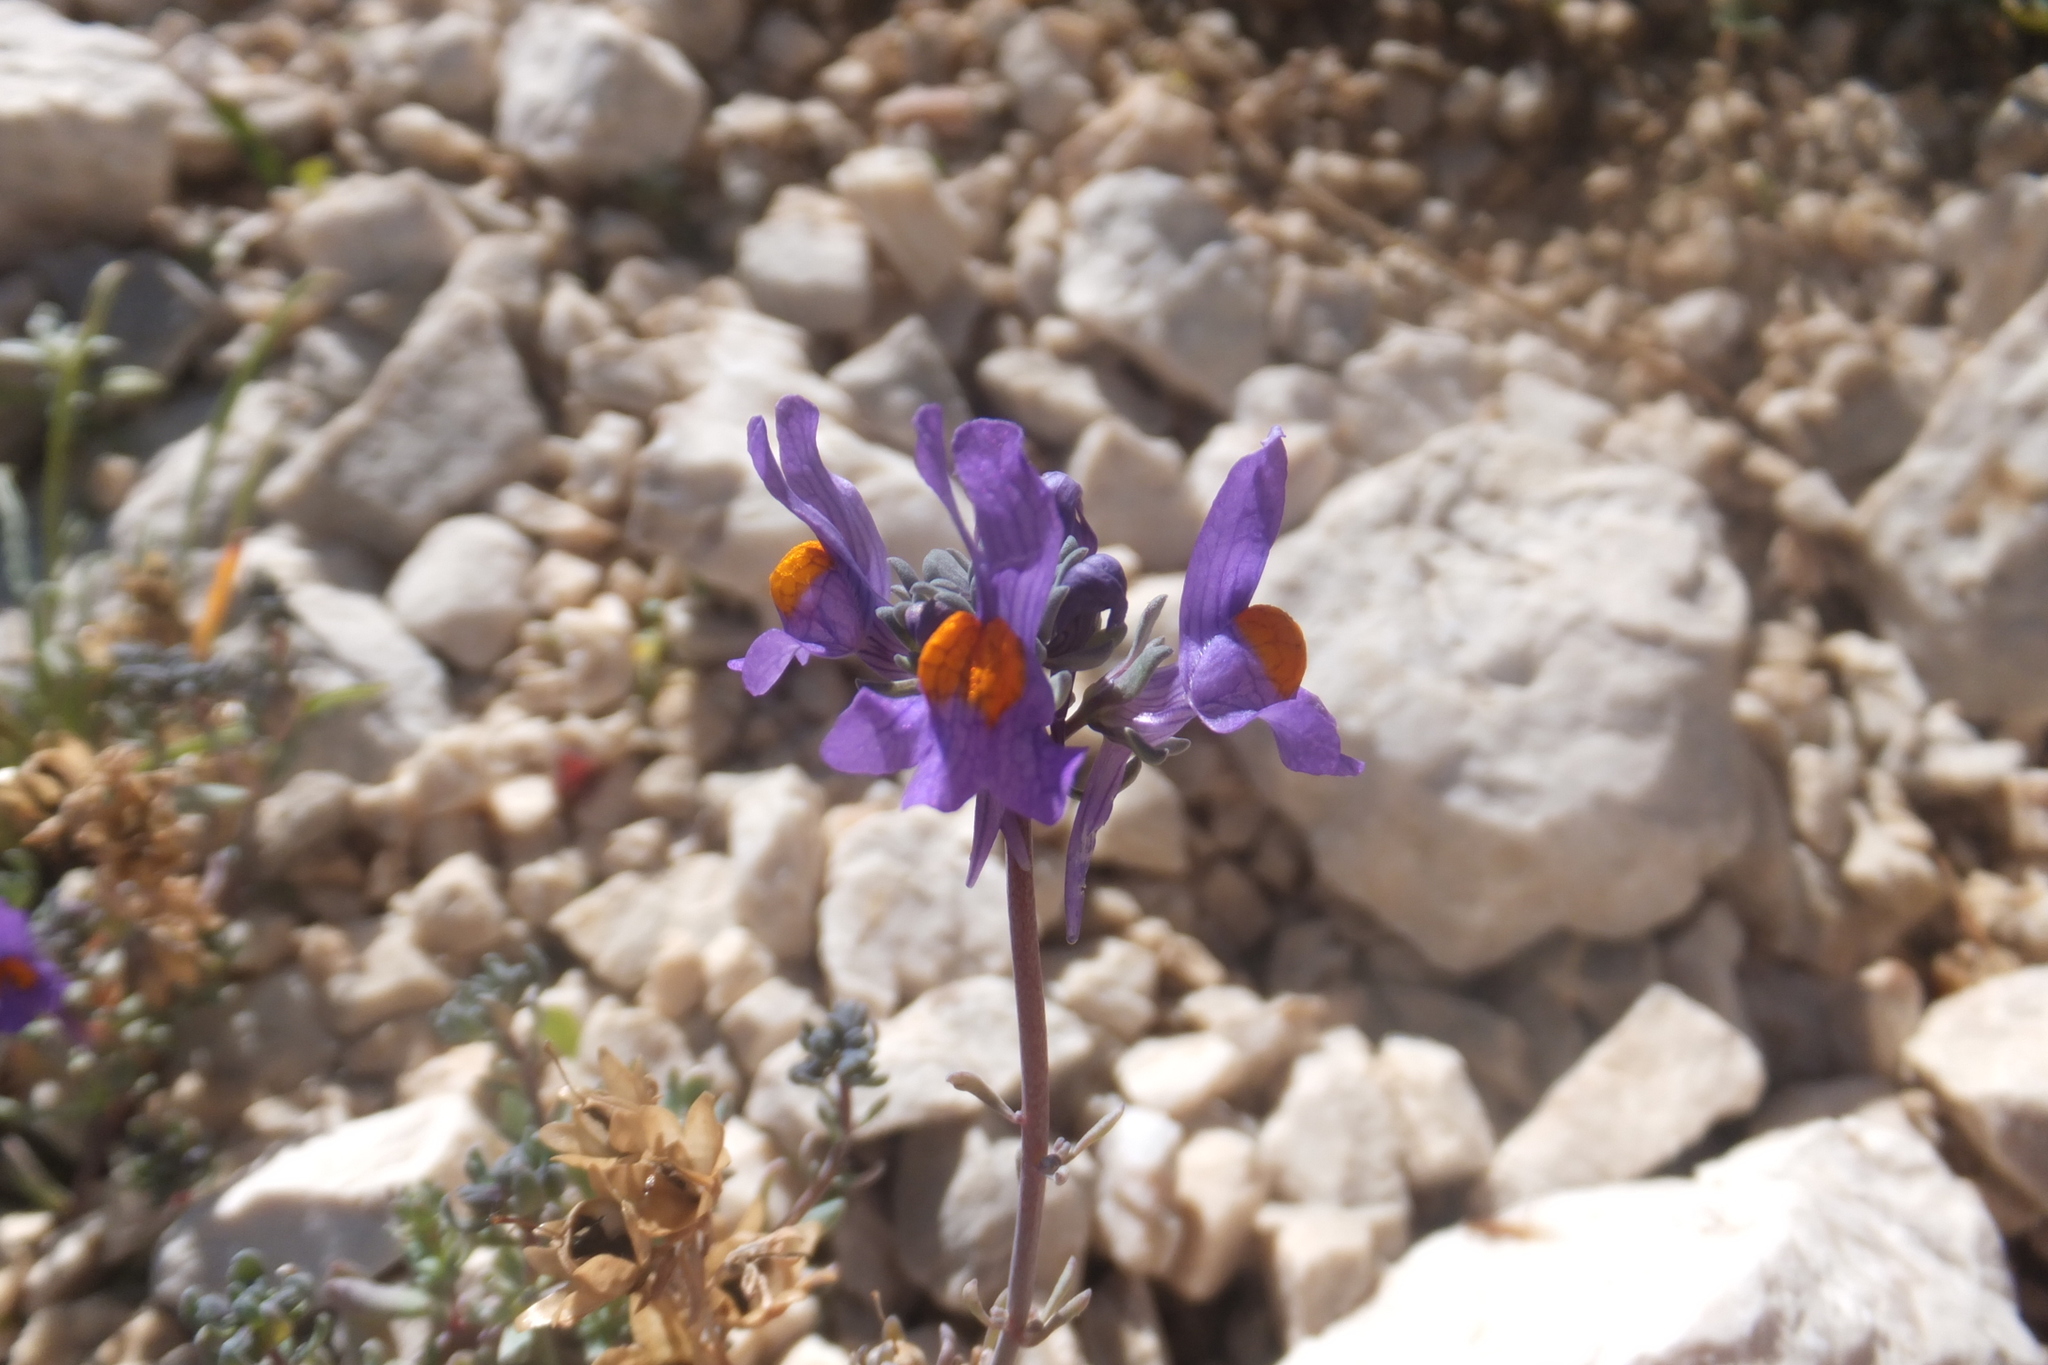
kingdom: Plantae
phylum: Tracheophyta
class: Magnoliopsida
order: Lamiales
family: Plantaginaceae
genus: Linaria
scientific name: Linaria alpina
